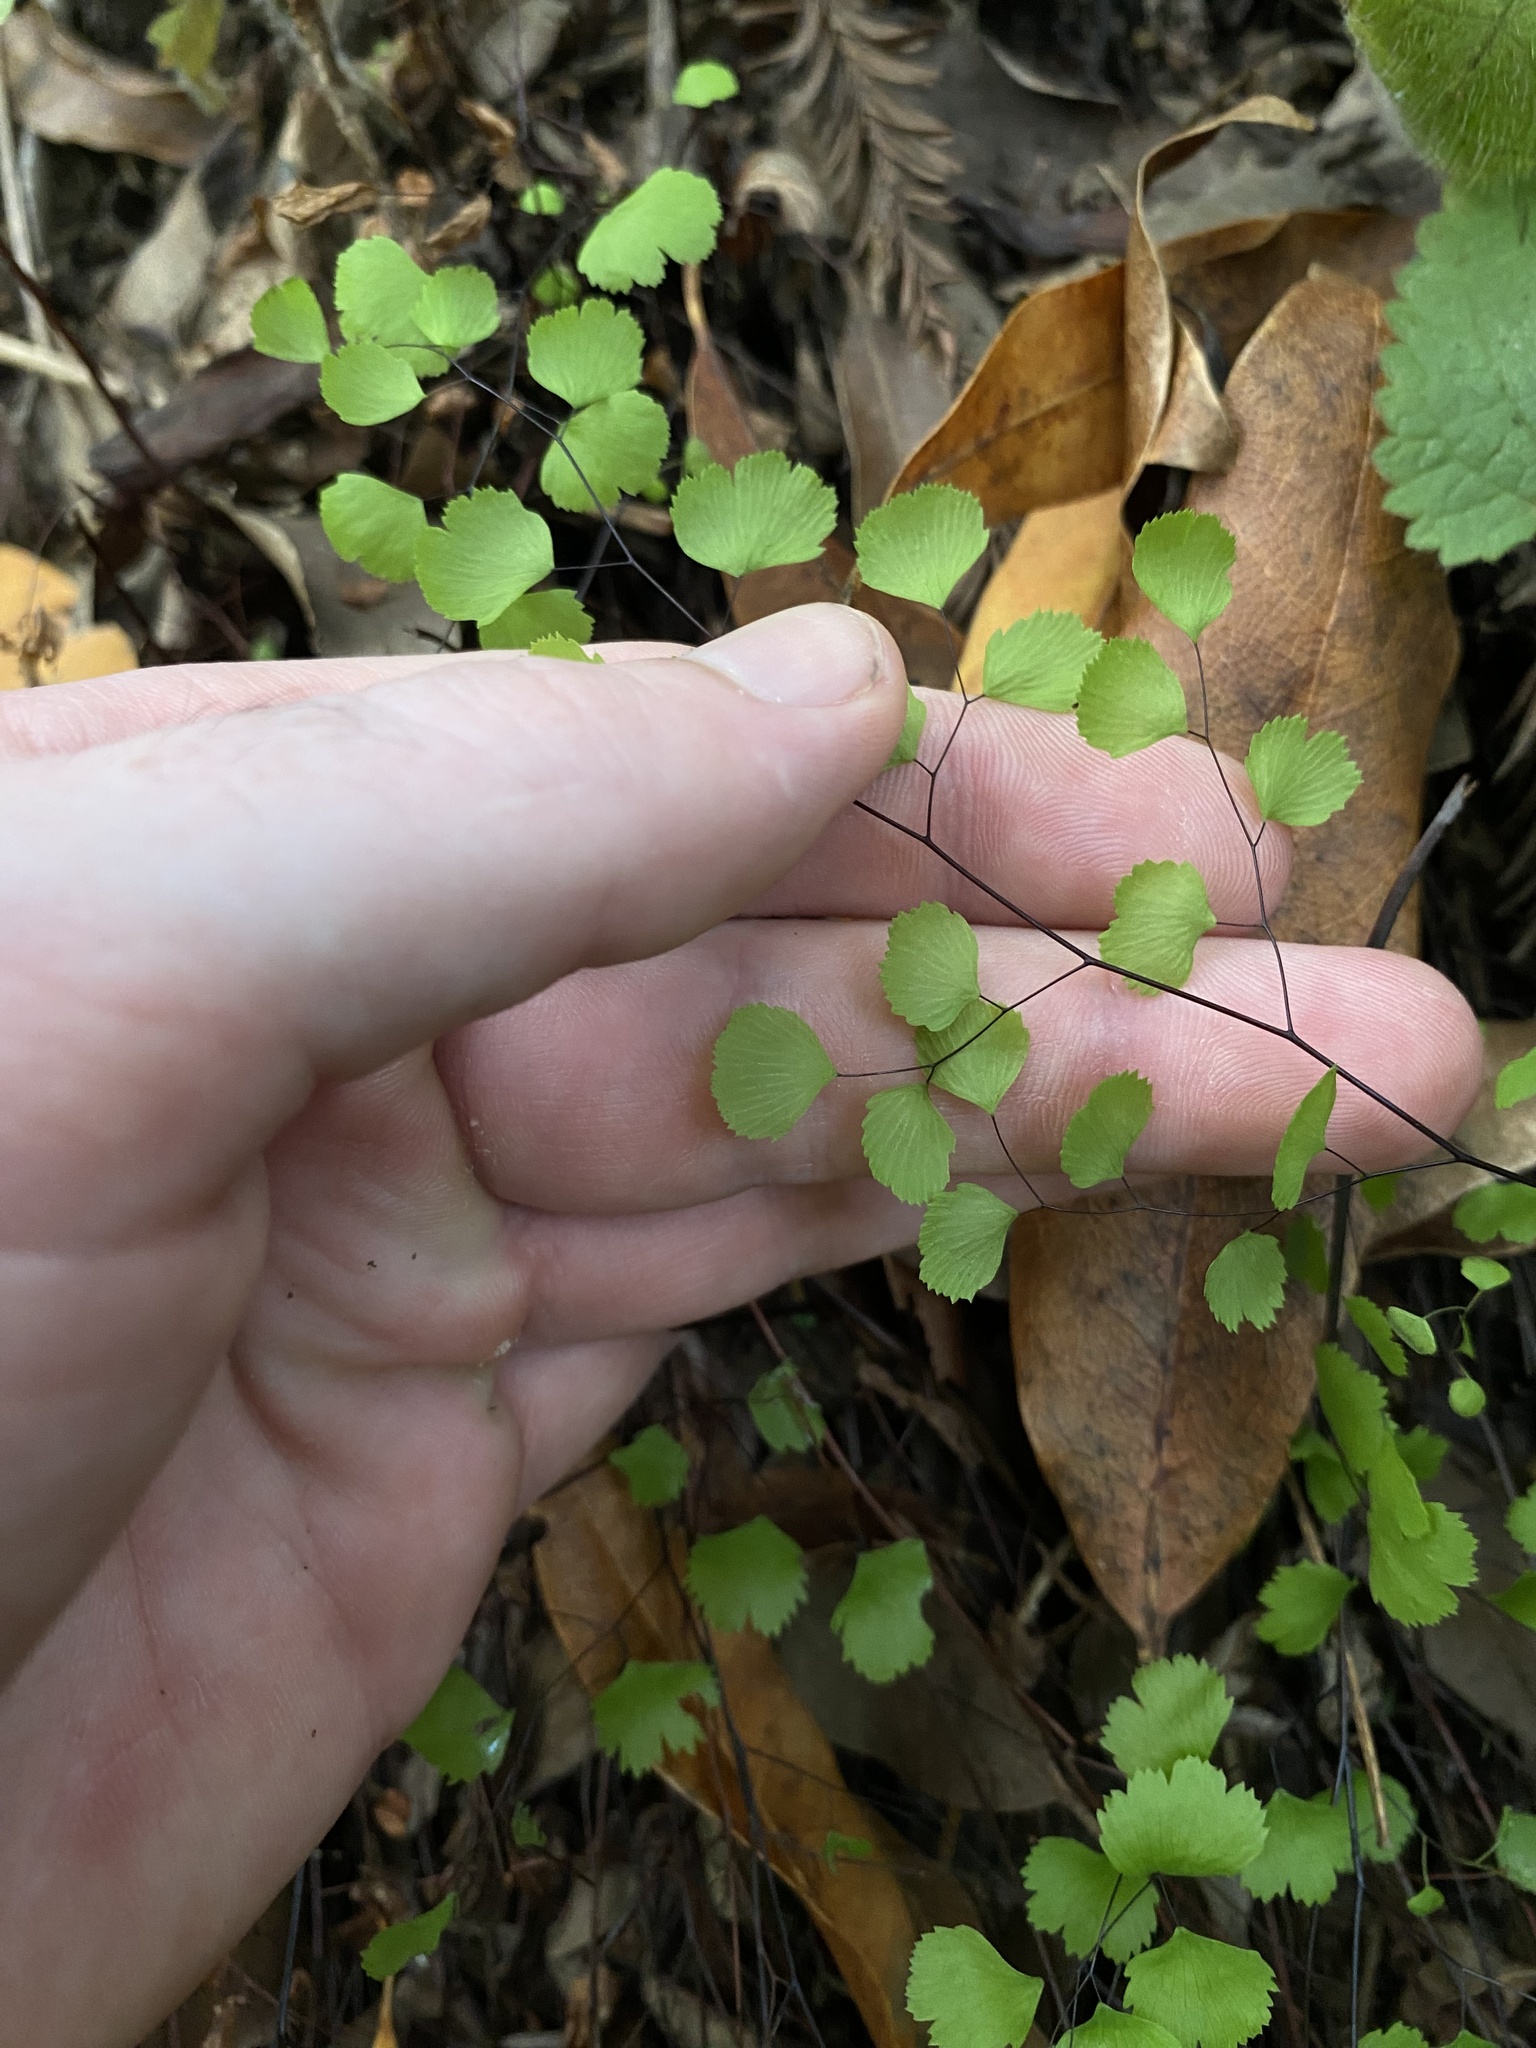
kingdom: Plantae
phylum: Tracheophyta
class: Polypodiopsida
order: Polypodiales
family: Pteridaceae
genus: Adiantum
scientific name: Adiantum jordanii
